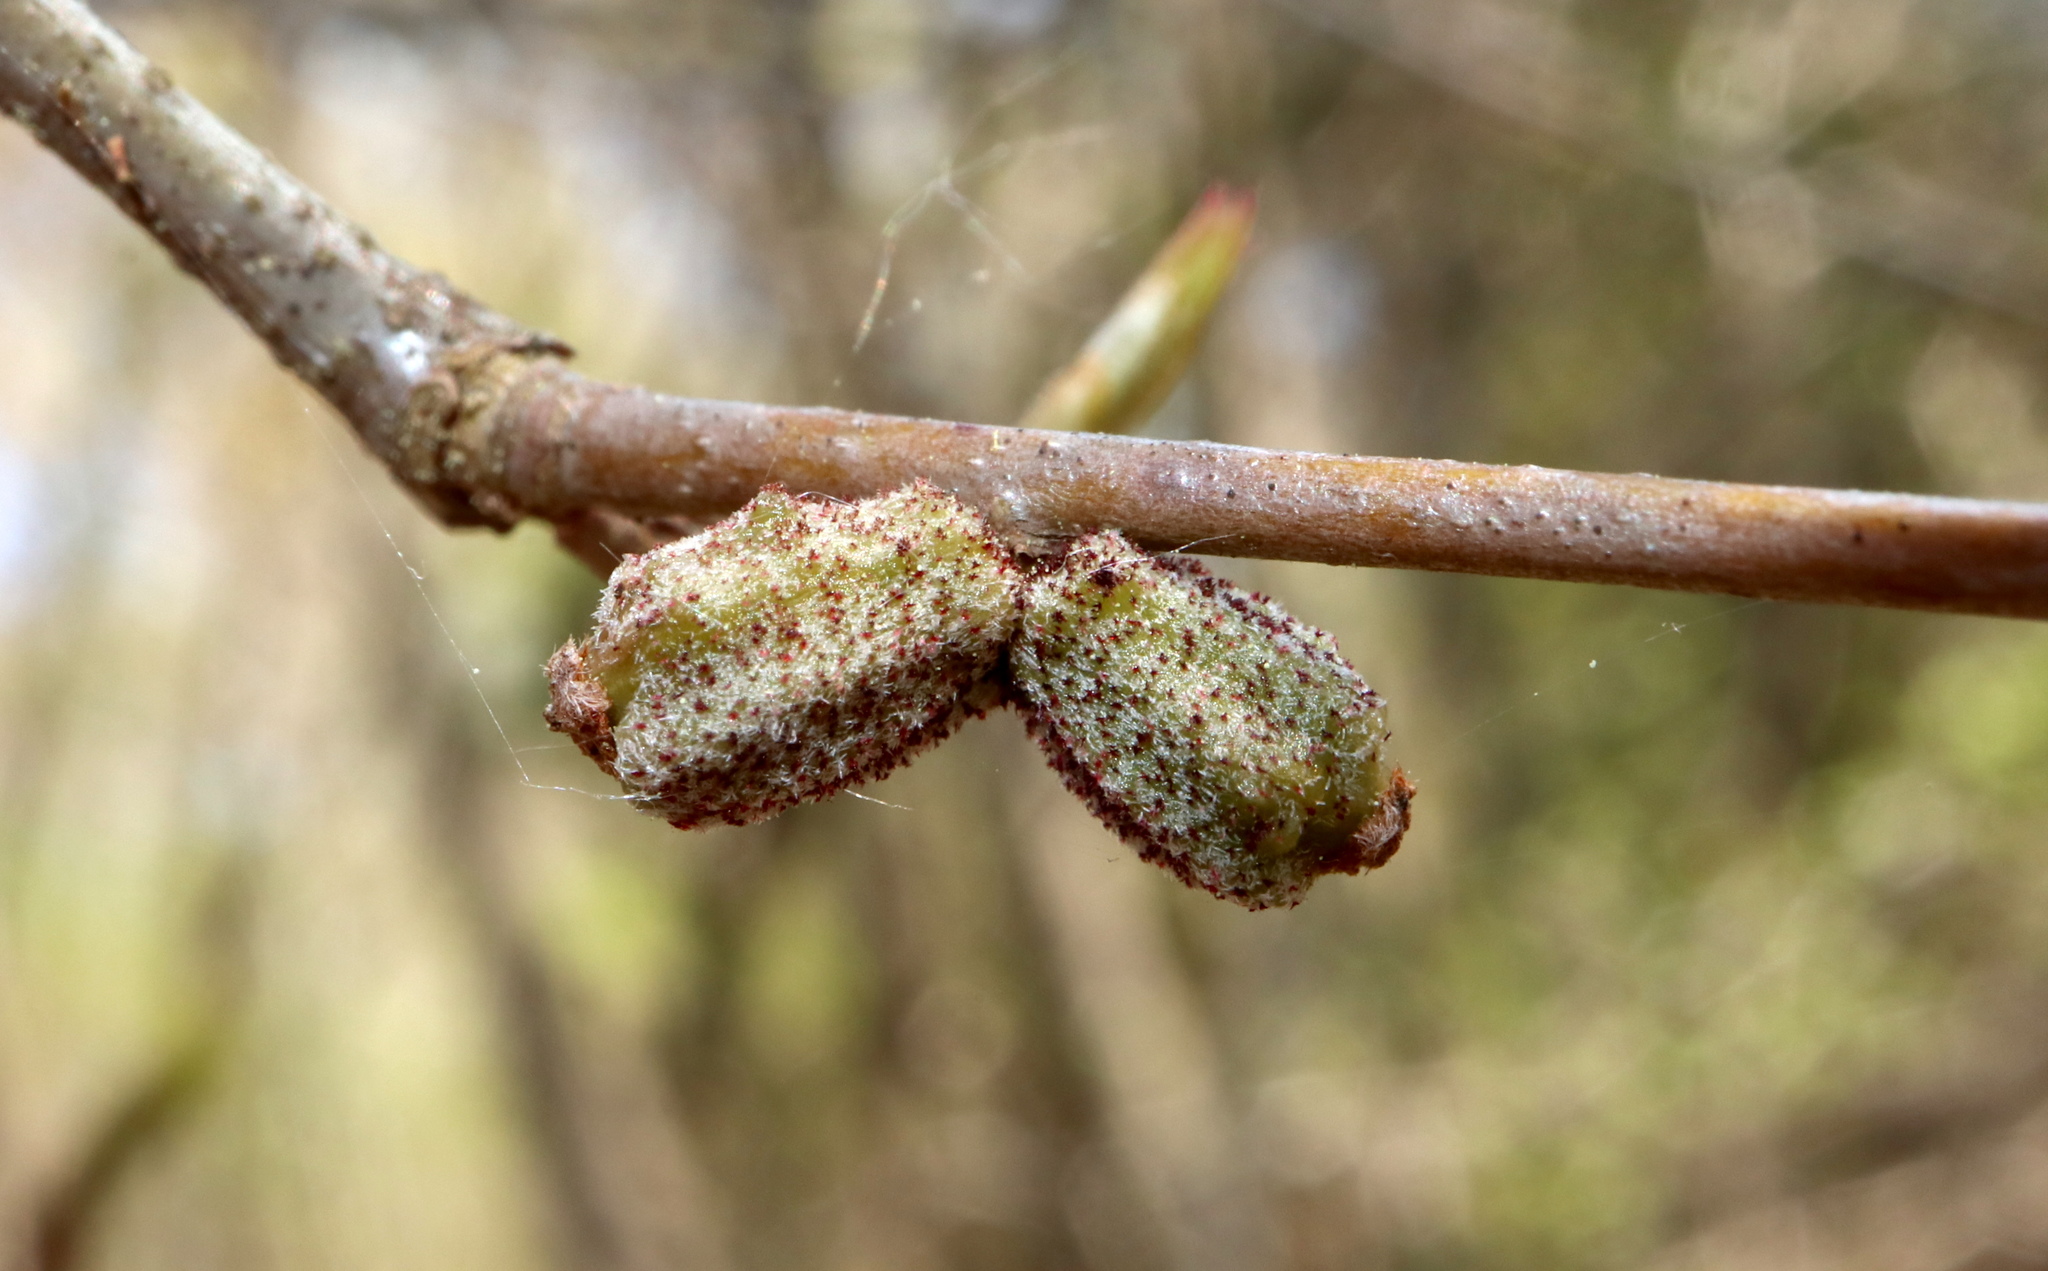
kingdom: Animalia
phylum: Arthropoda
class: Insecta
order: Hymenoptera
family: Cynipidae
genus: Callirhytis
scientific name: Callirhytis
